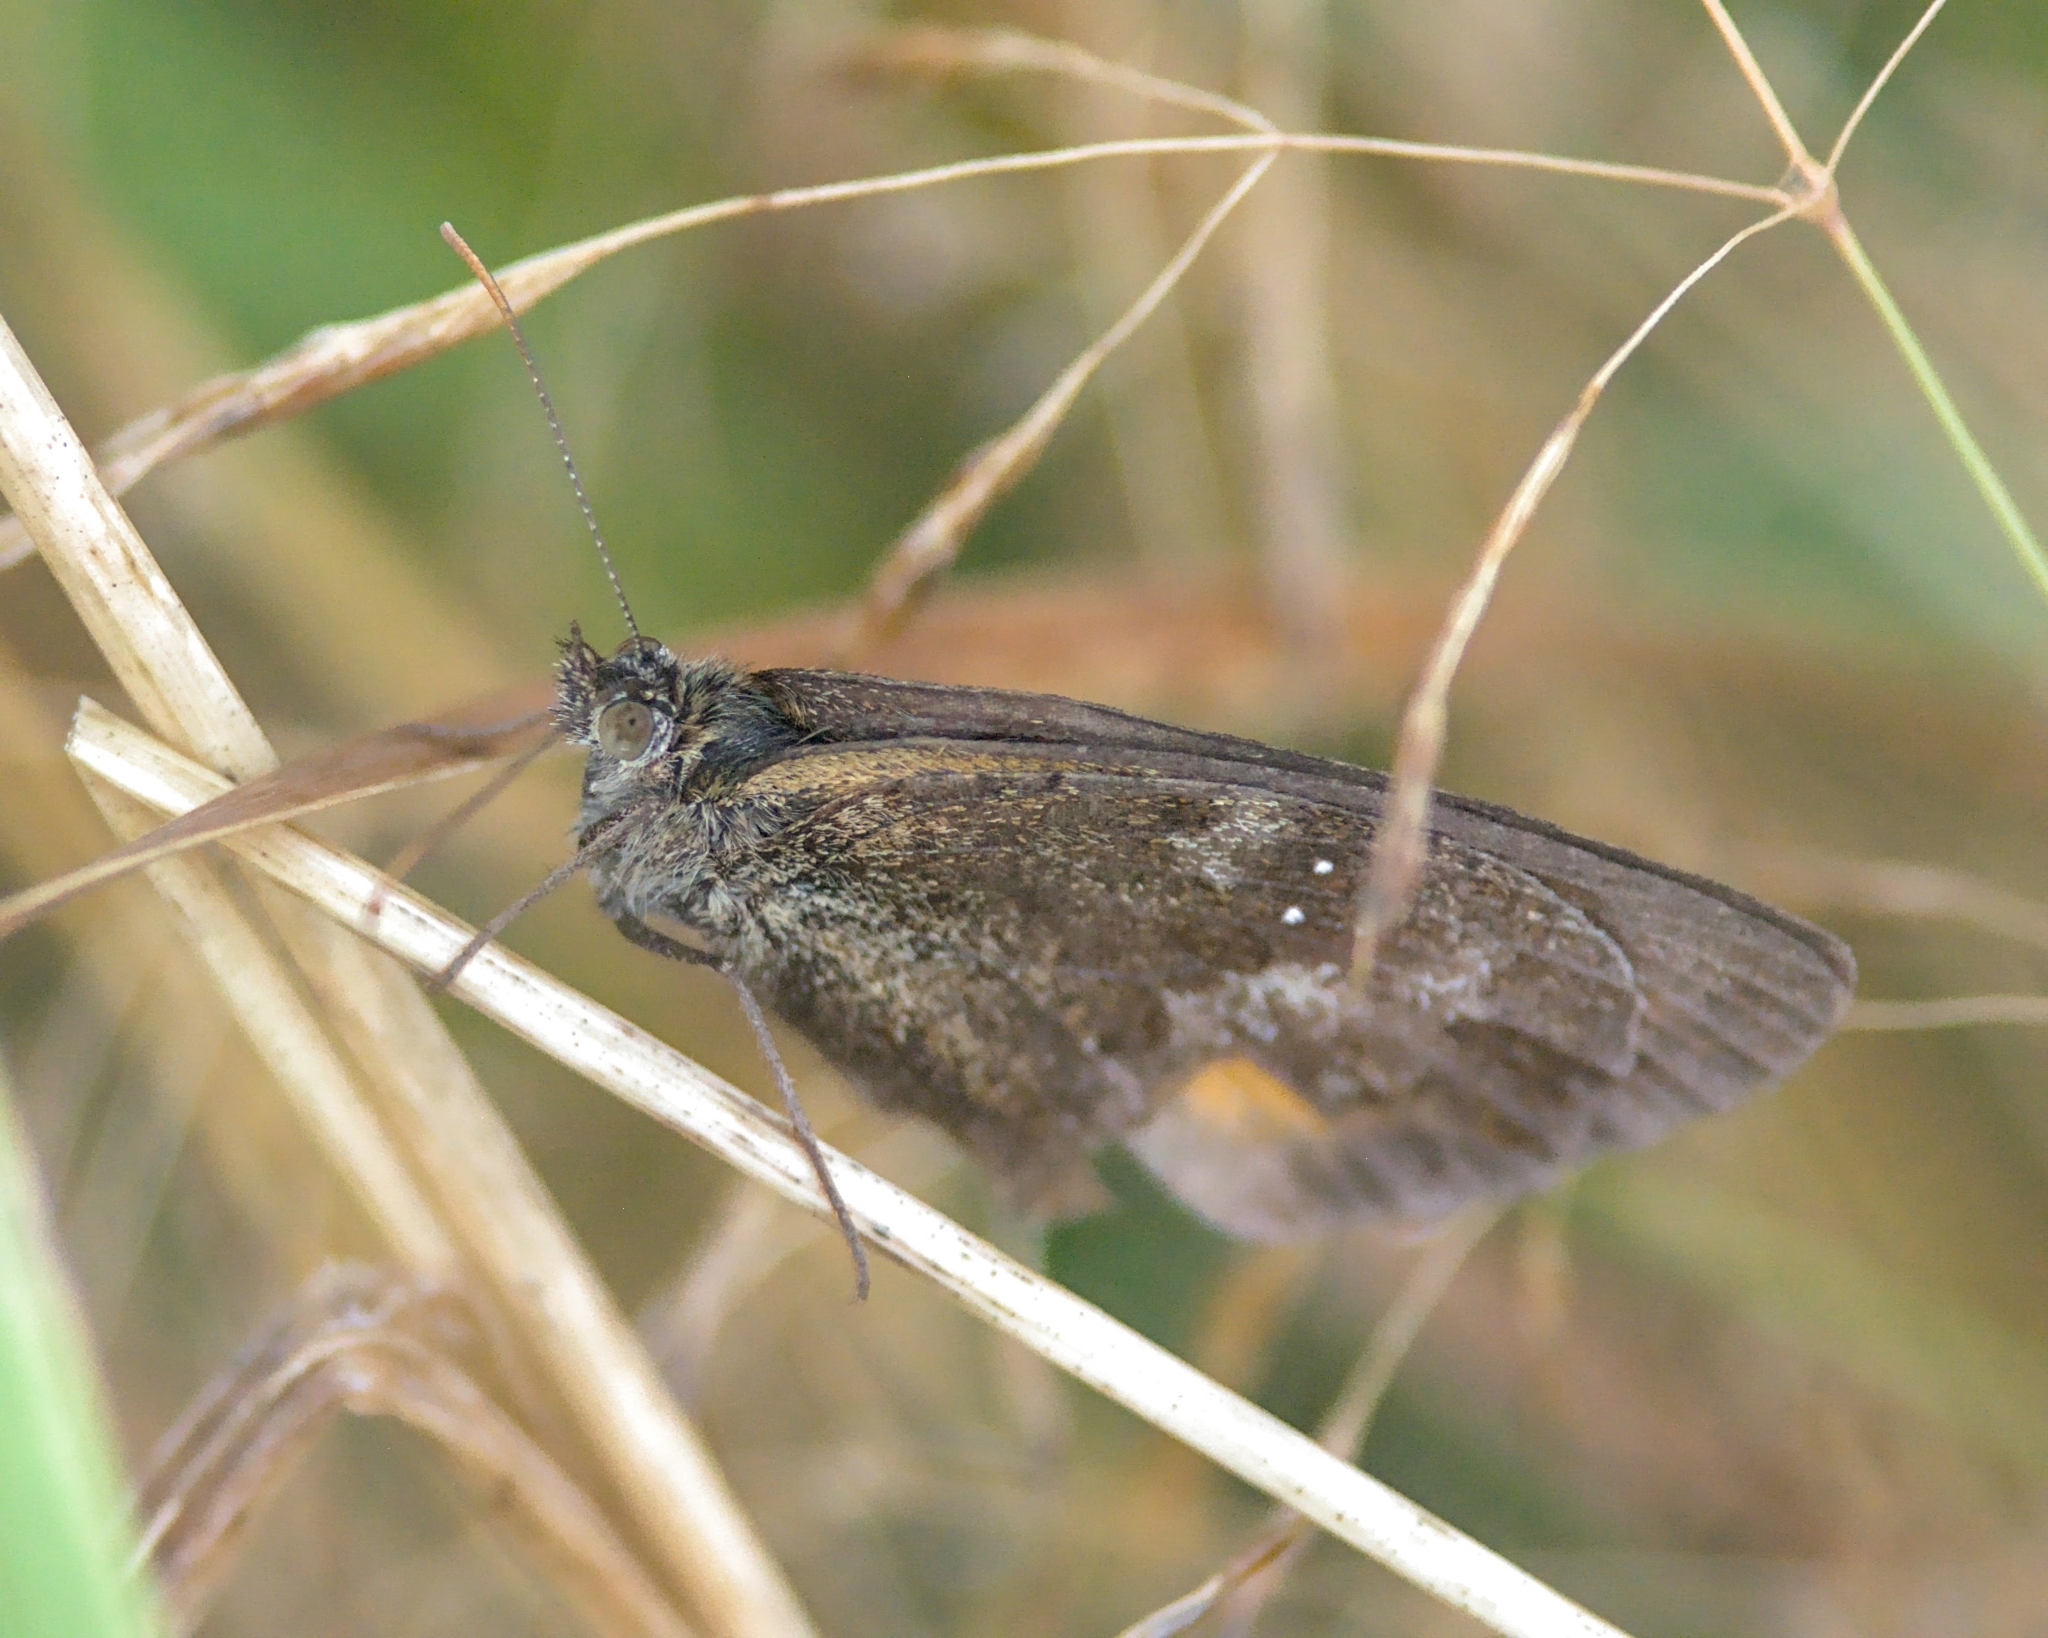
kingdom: Animalia
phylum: Arthropoda
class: Insecta
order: Lepidoptera
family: Nymphalidae
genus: Pyronia
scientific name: Pyronia tithonus
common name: Gatekeeper
